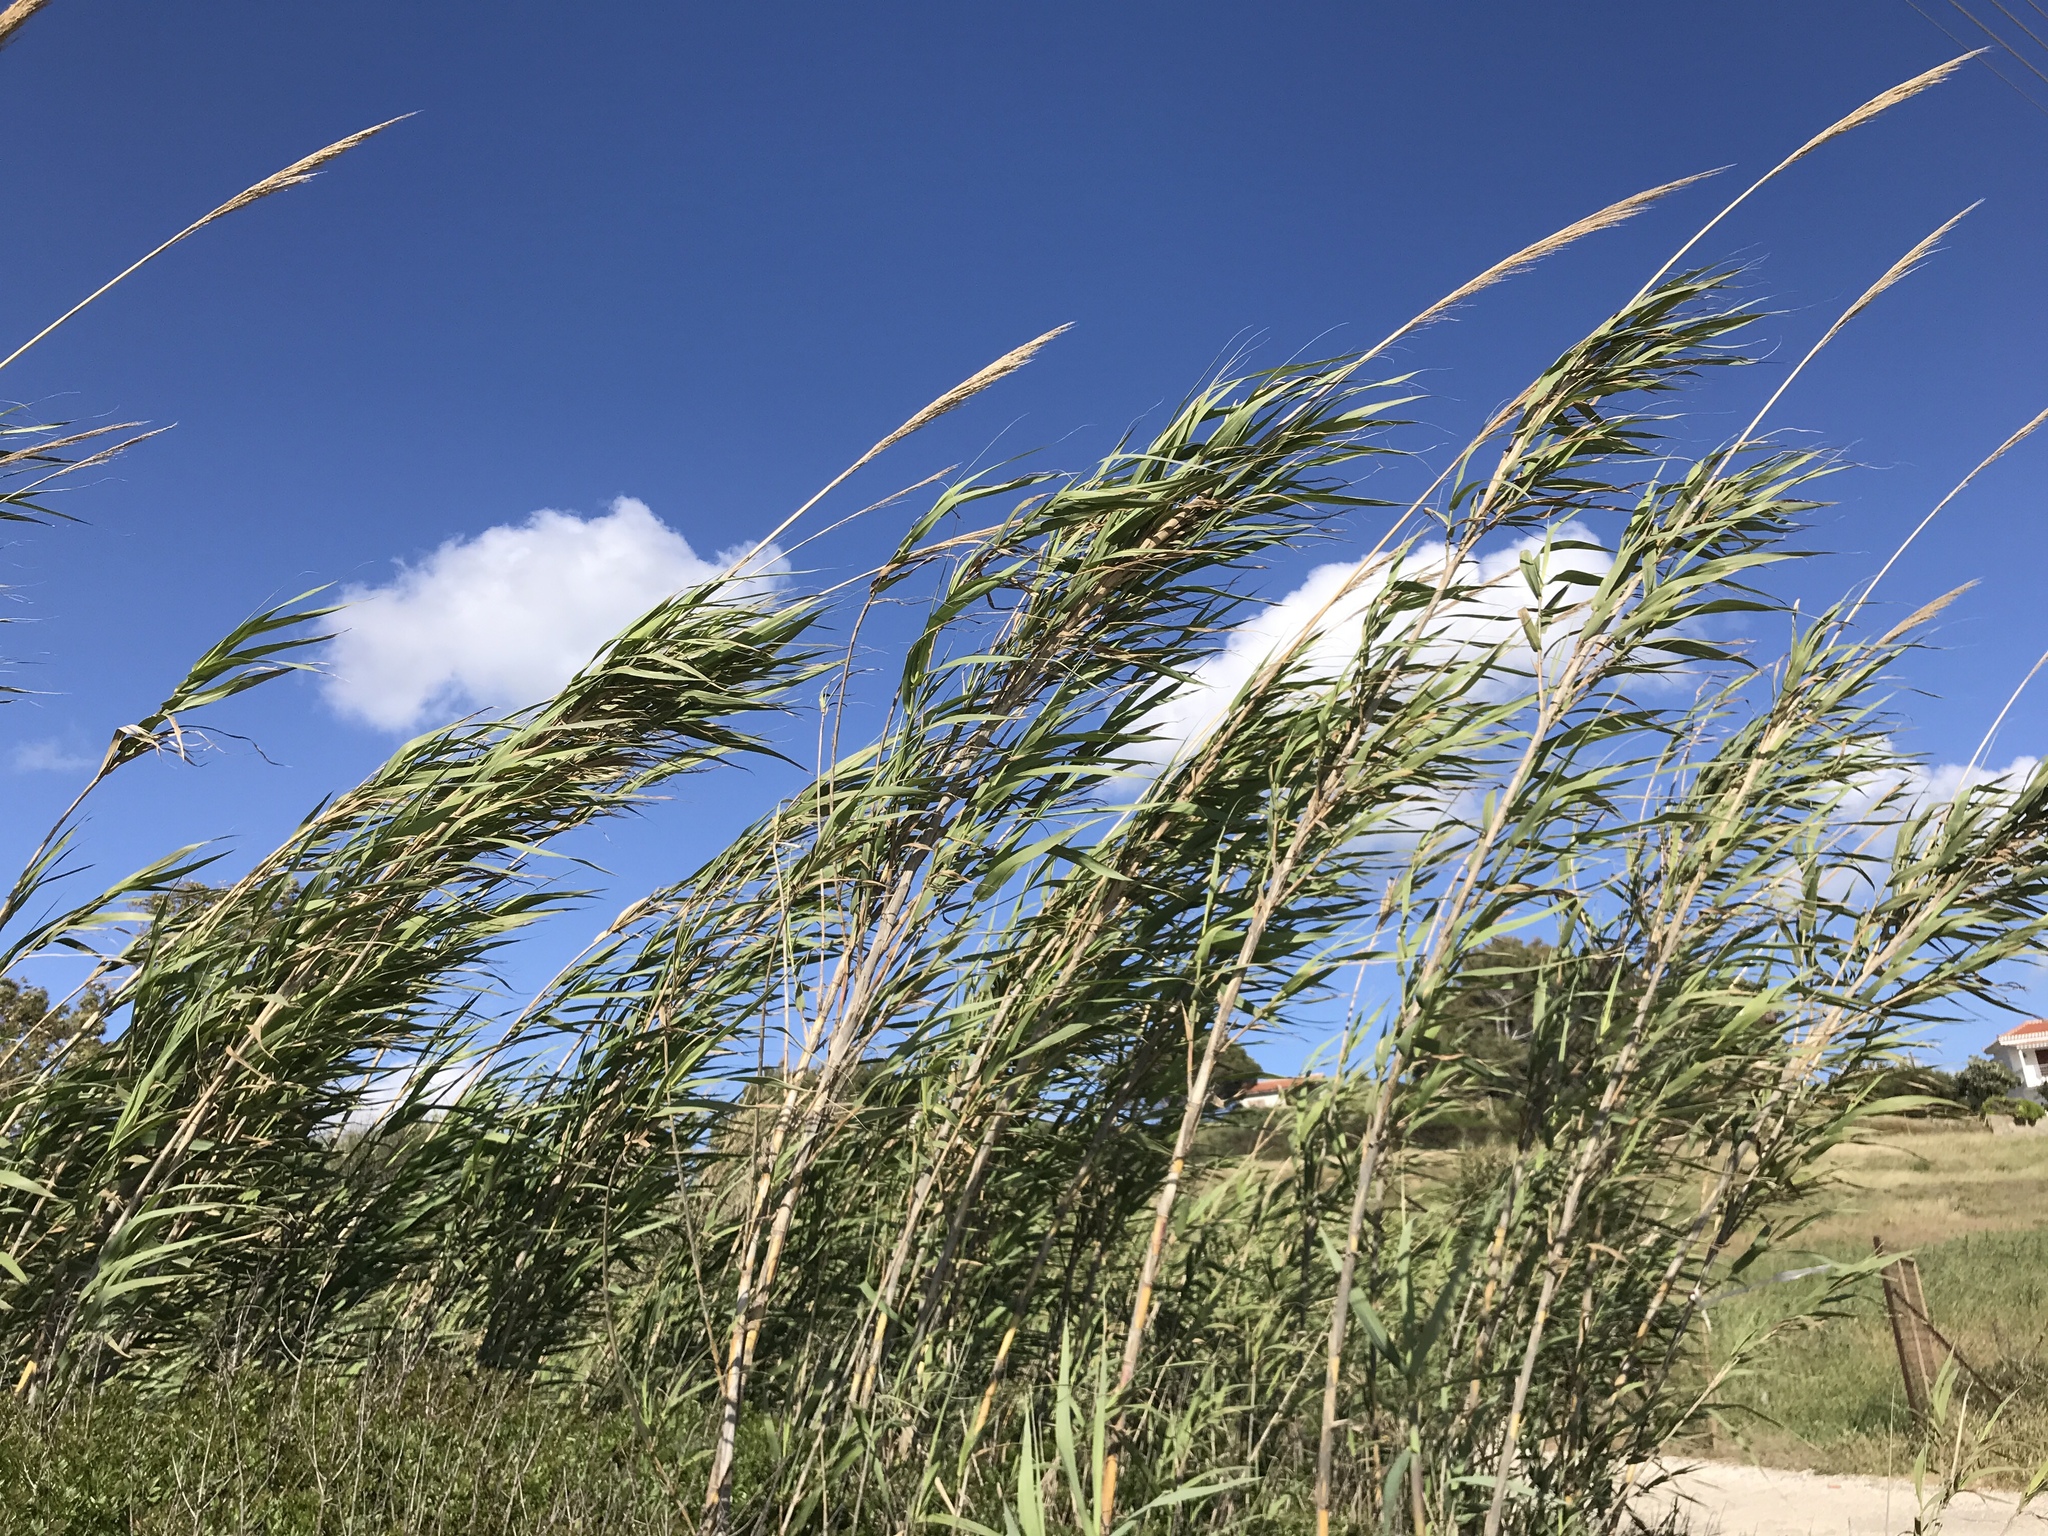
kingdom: Plantae
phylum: Tracheophyta
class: Liliopsida
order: Poales
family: Poaceae
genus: Arundo
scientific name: Arundo donax
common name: Giant reed
